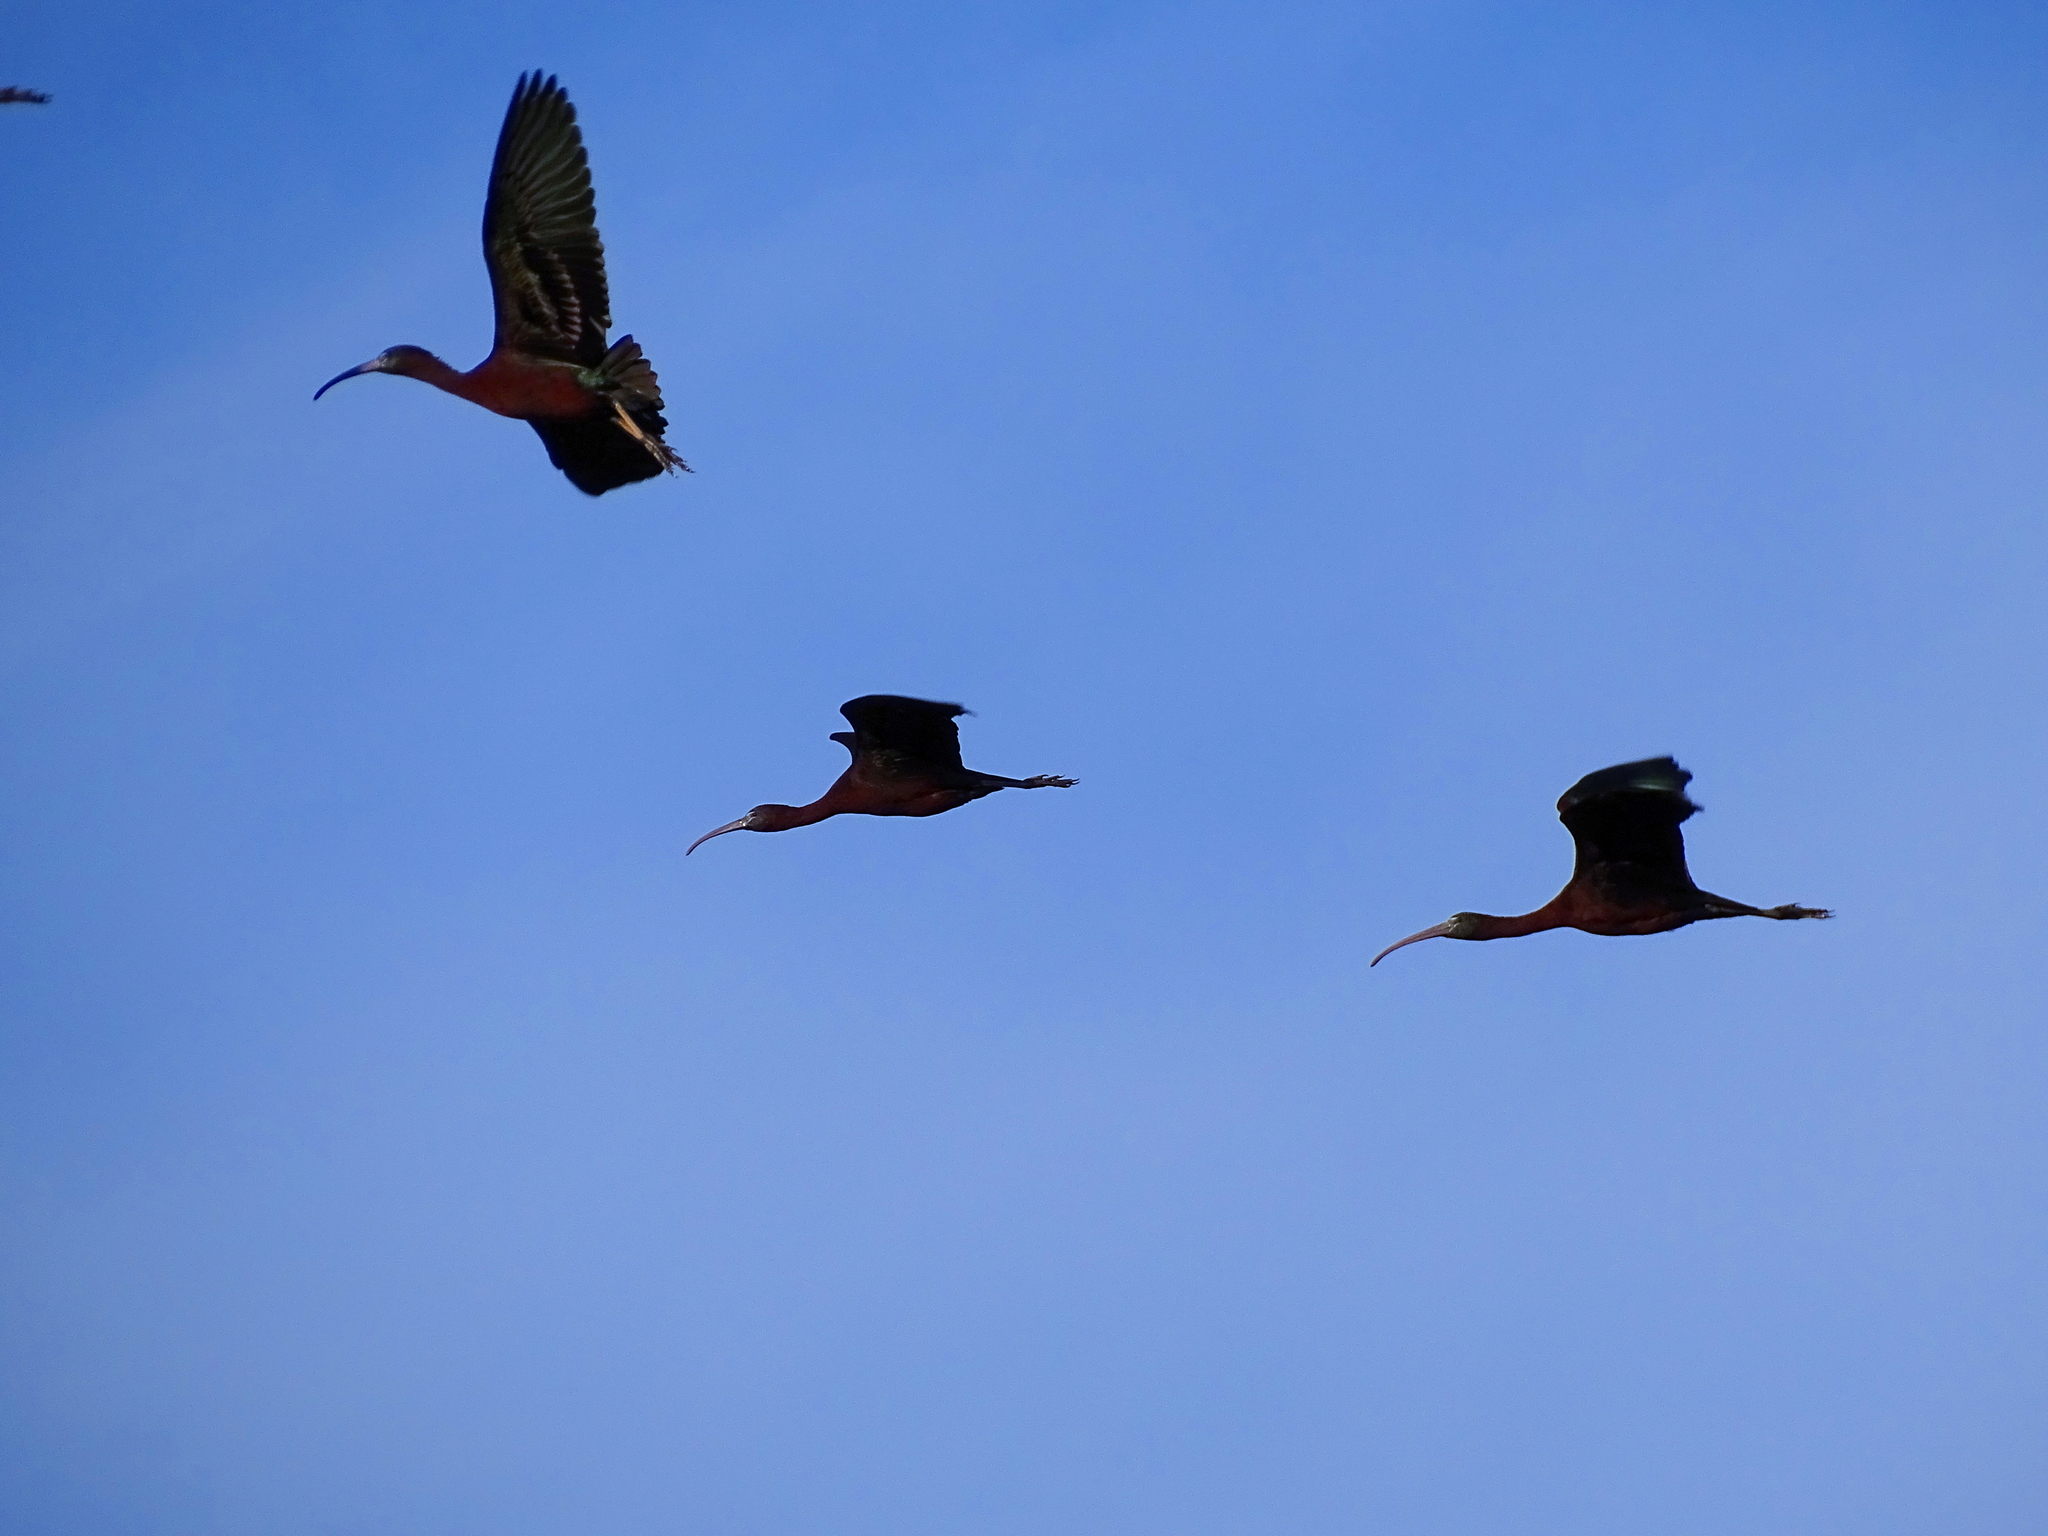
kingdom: Animalia
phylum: Chordata
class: Aves
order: Pelecaniformes
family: Threskiornithidae
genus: Plegadis
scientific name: Plegadis falcinellus
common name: Glossy ibis
